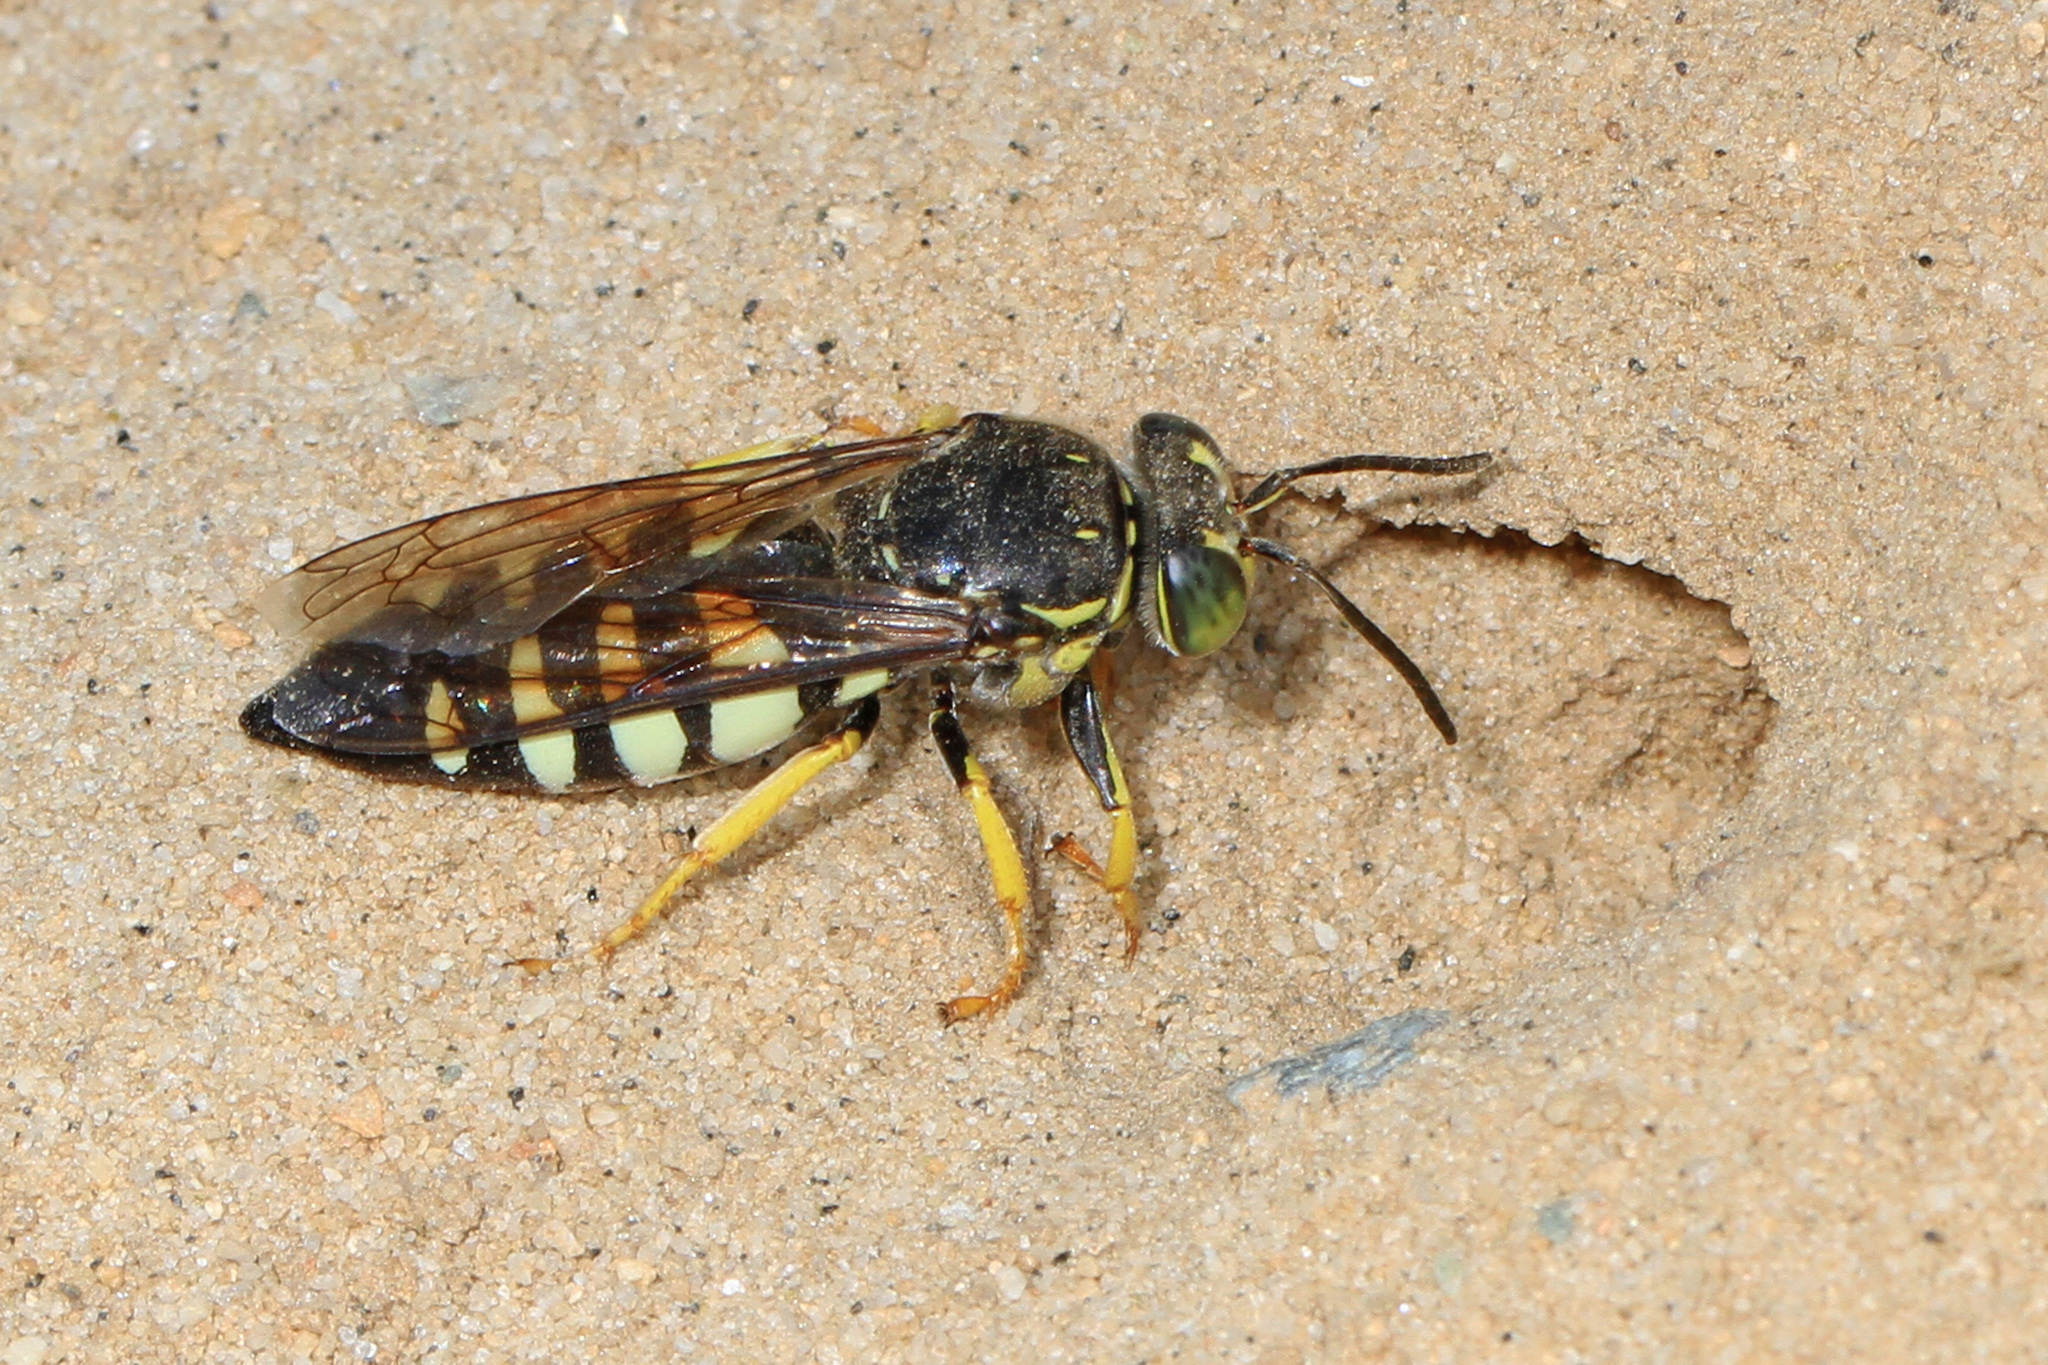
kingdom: Animalia
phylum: Arthropoda
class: Insecta
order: Hymenoptera
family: Crabronidae
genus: Bicyrtes
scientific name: Bicyrtes quadrifasciatus
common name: Four-banded stink bug hunter wasp
